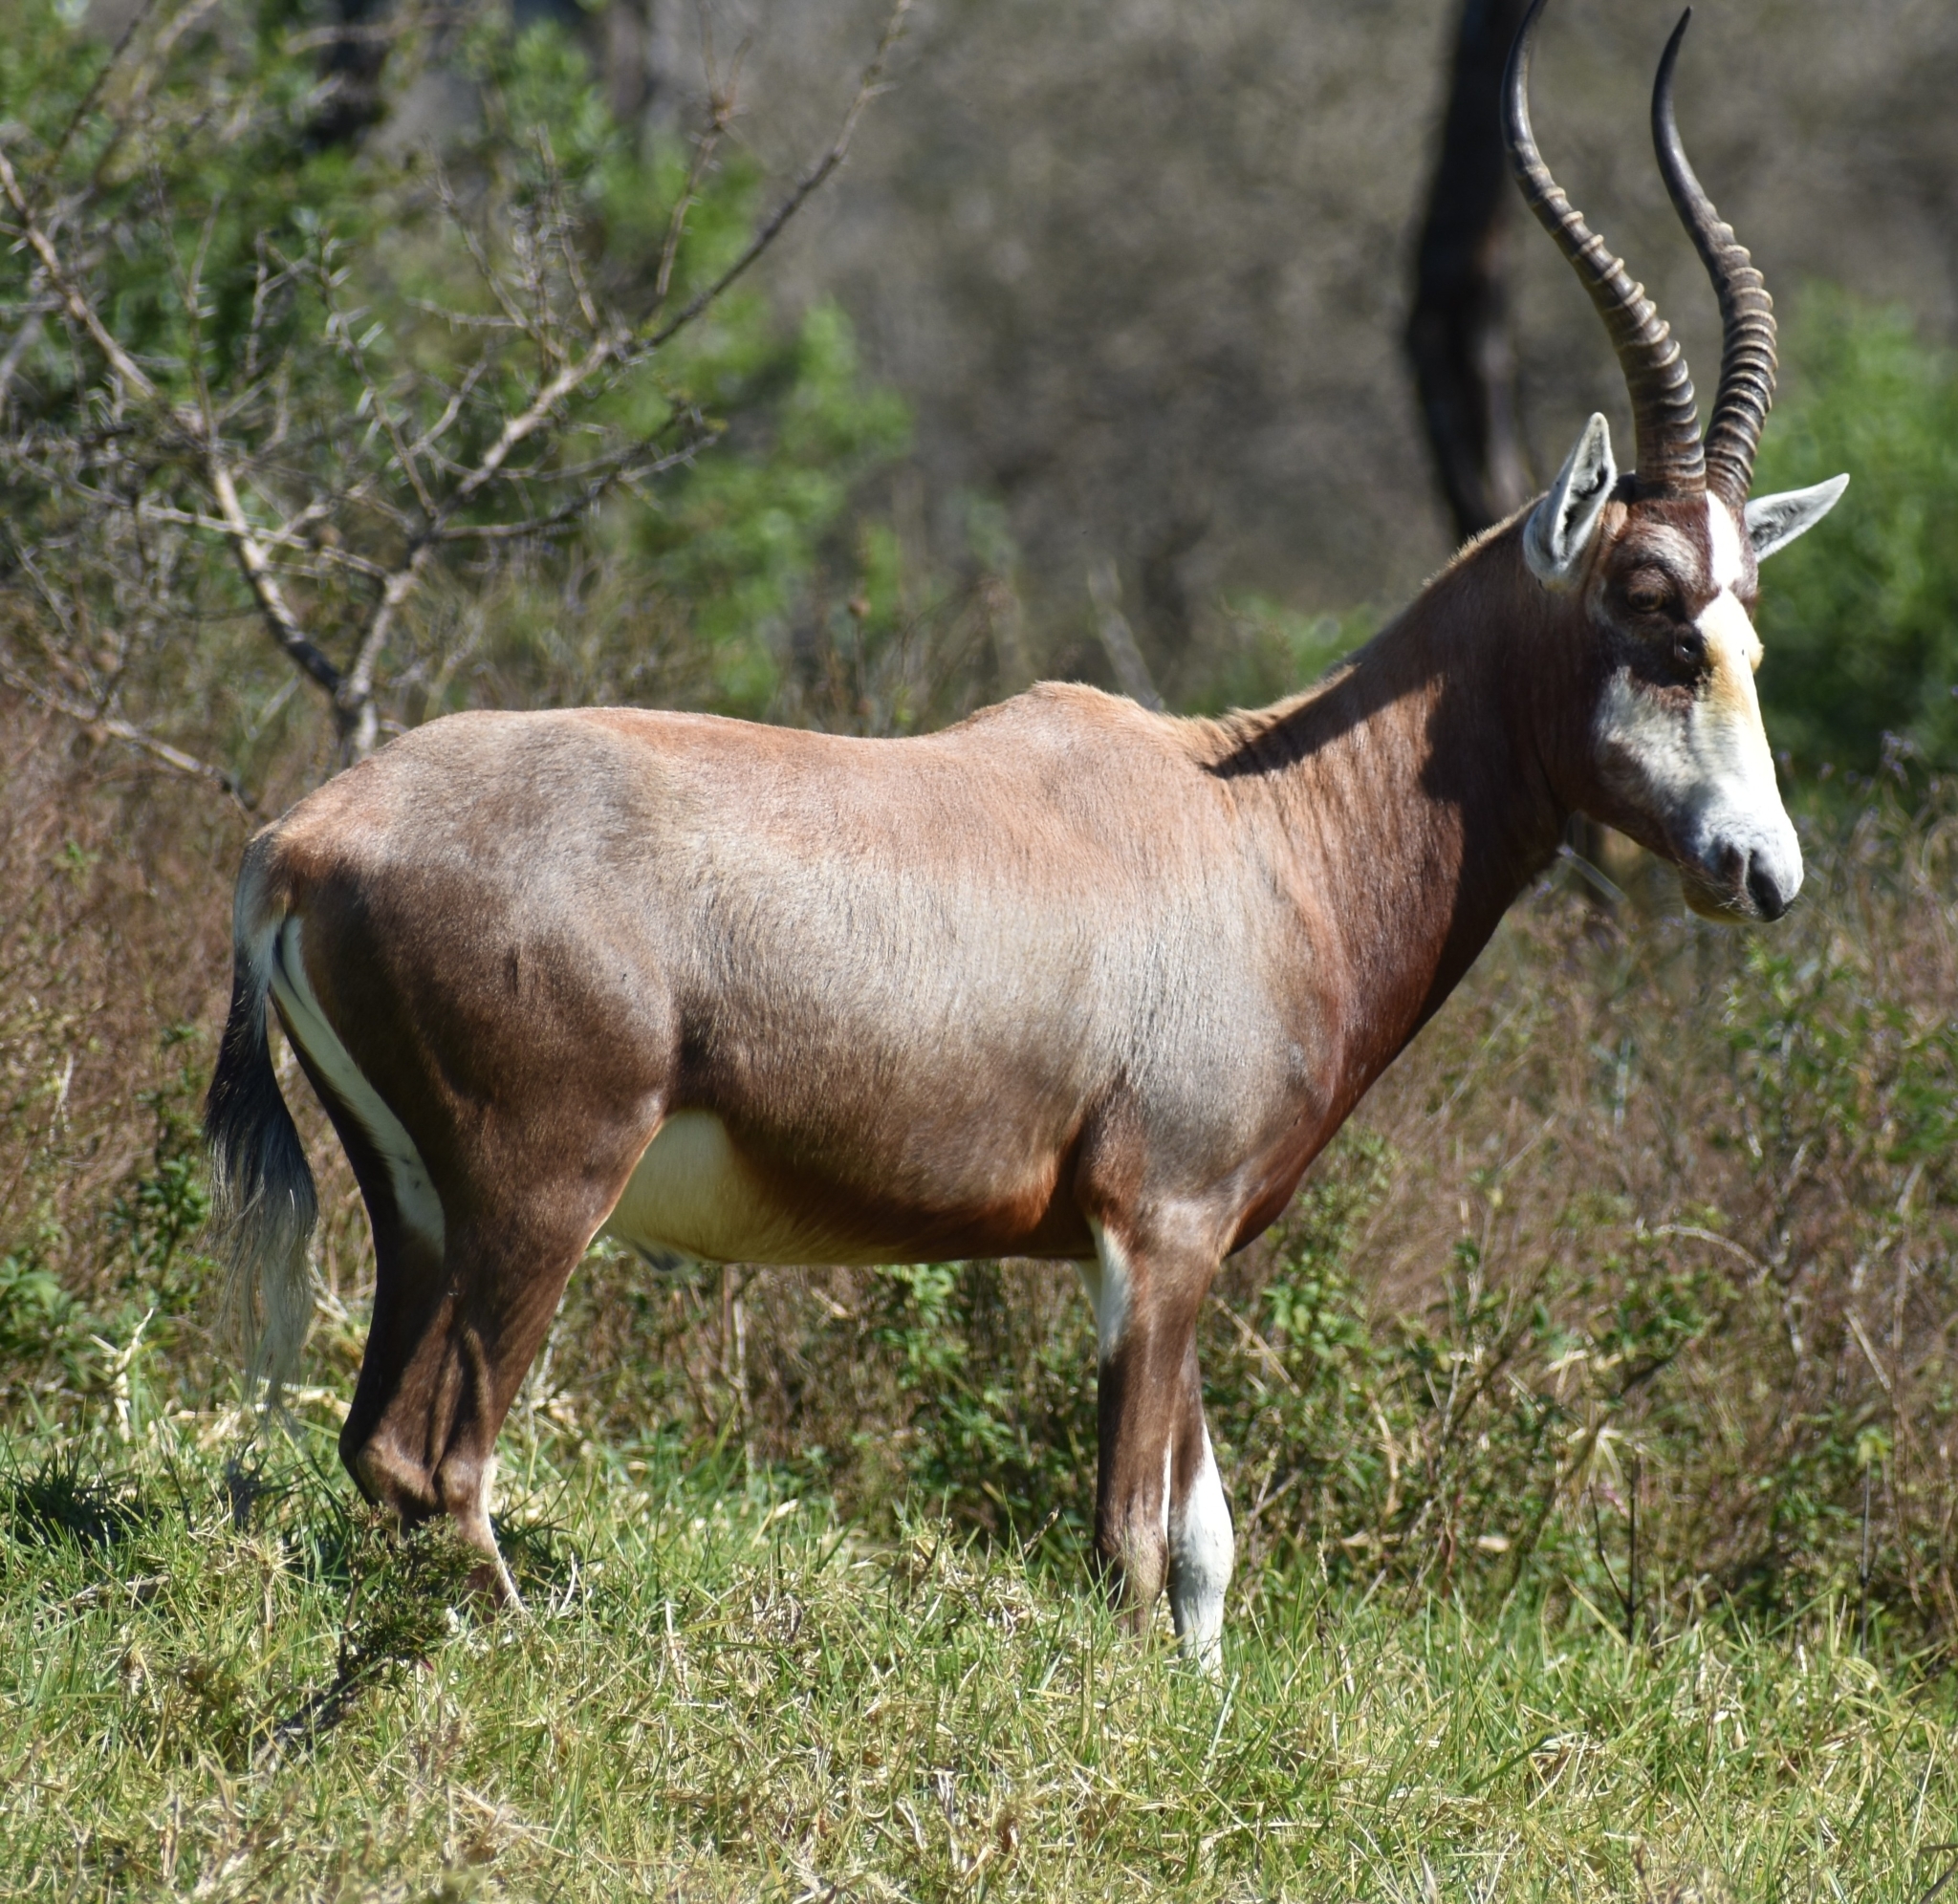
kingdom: Animalia
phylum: Chordata
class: Mammalia
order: Artiodactyla
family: Bovidae
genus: Damaliscus
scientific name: Damaliscus pygargus
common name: Bontebok
